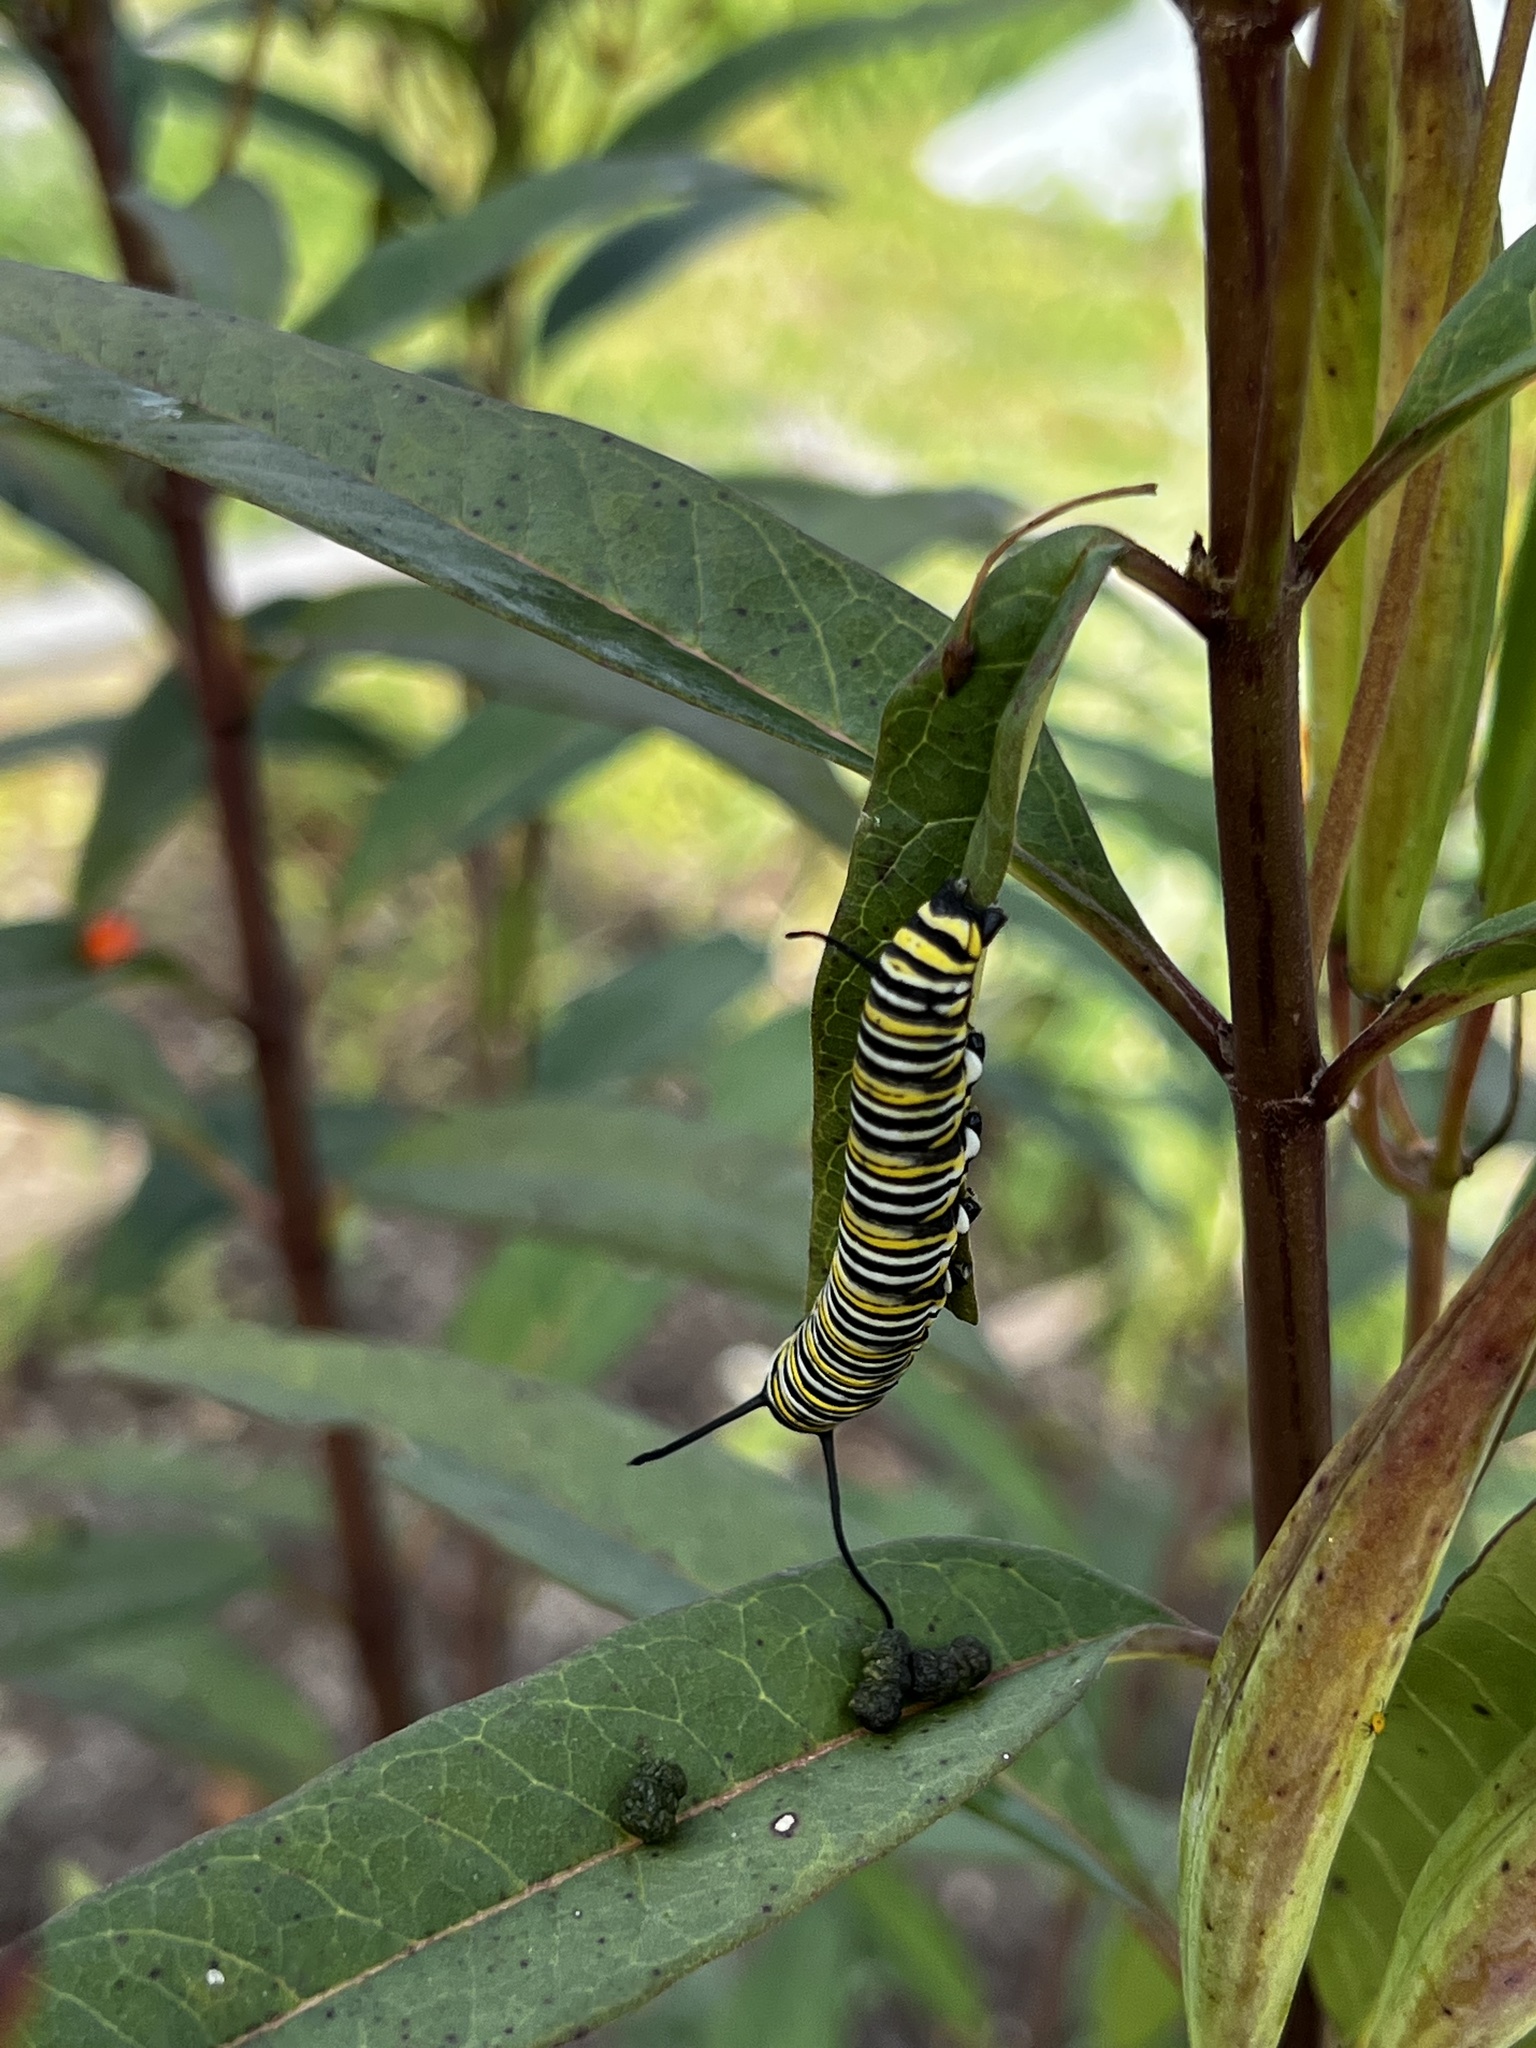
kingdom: Animalia
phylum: Arthropoda
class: Insecta
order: Lepidoptera
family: Nymphalidae
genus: Danaus
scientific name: Danaus plexippus
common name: Monarch
